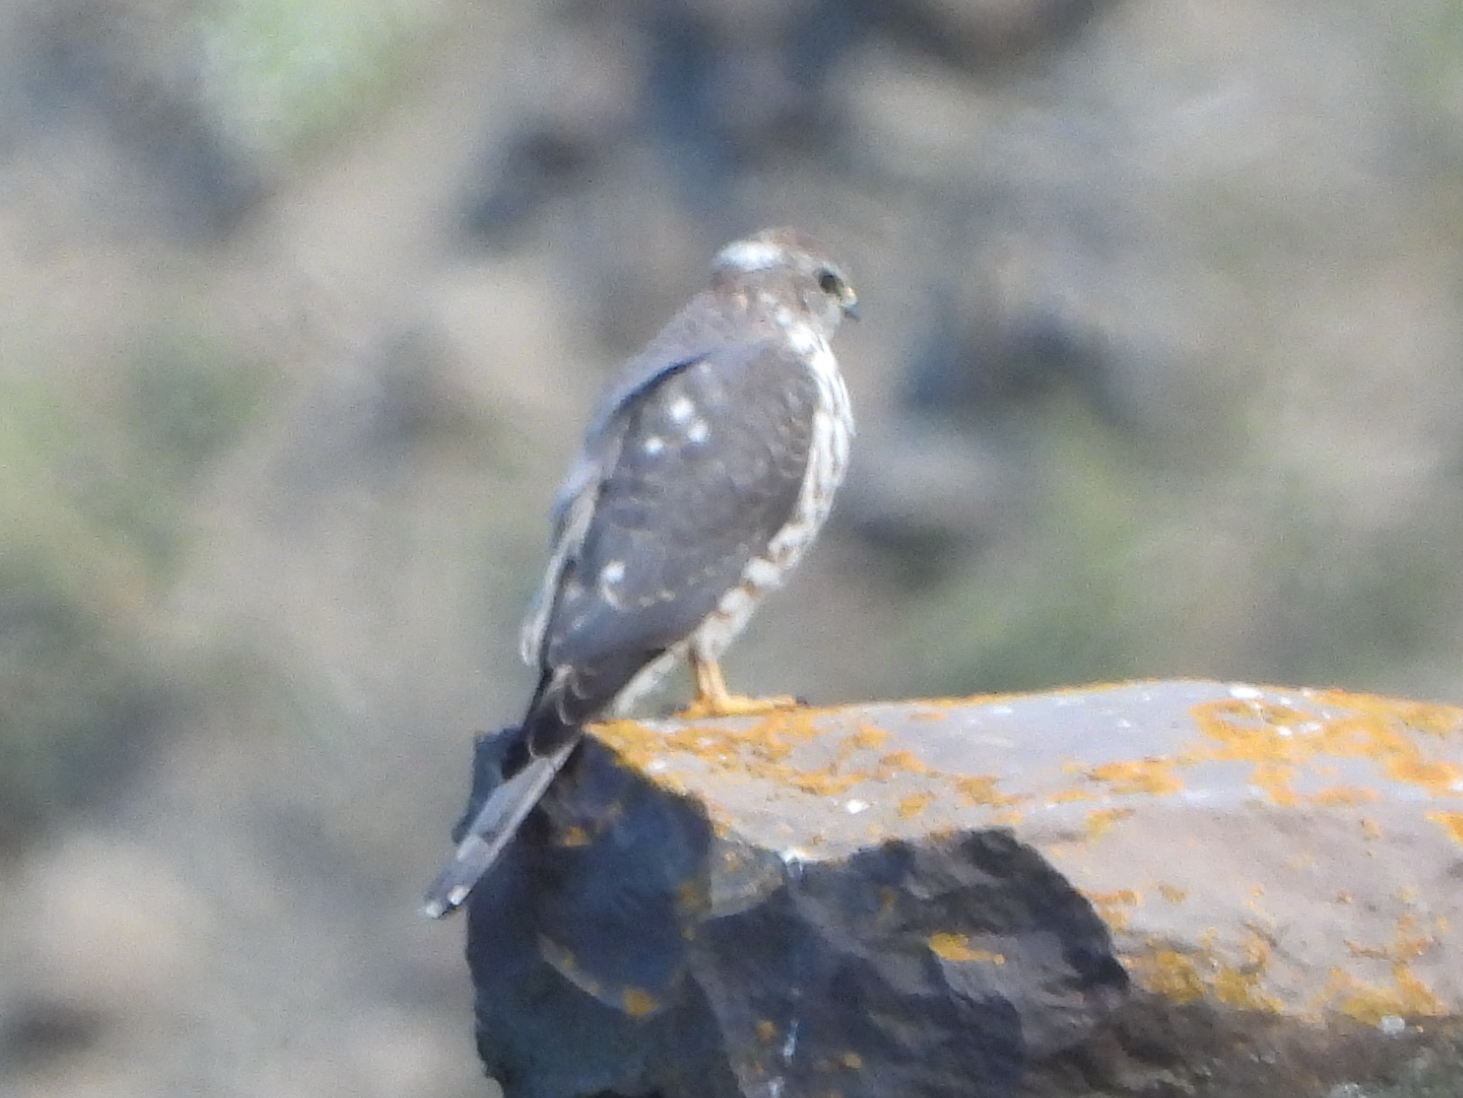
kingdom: Animalia
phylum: Chordata
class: Aves
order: Accipitriformes
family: Accipitridae
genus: Accipiter
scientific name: Accipiter brevipes
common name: Levant sparrowhawk
